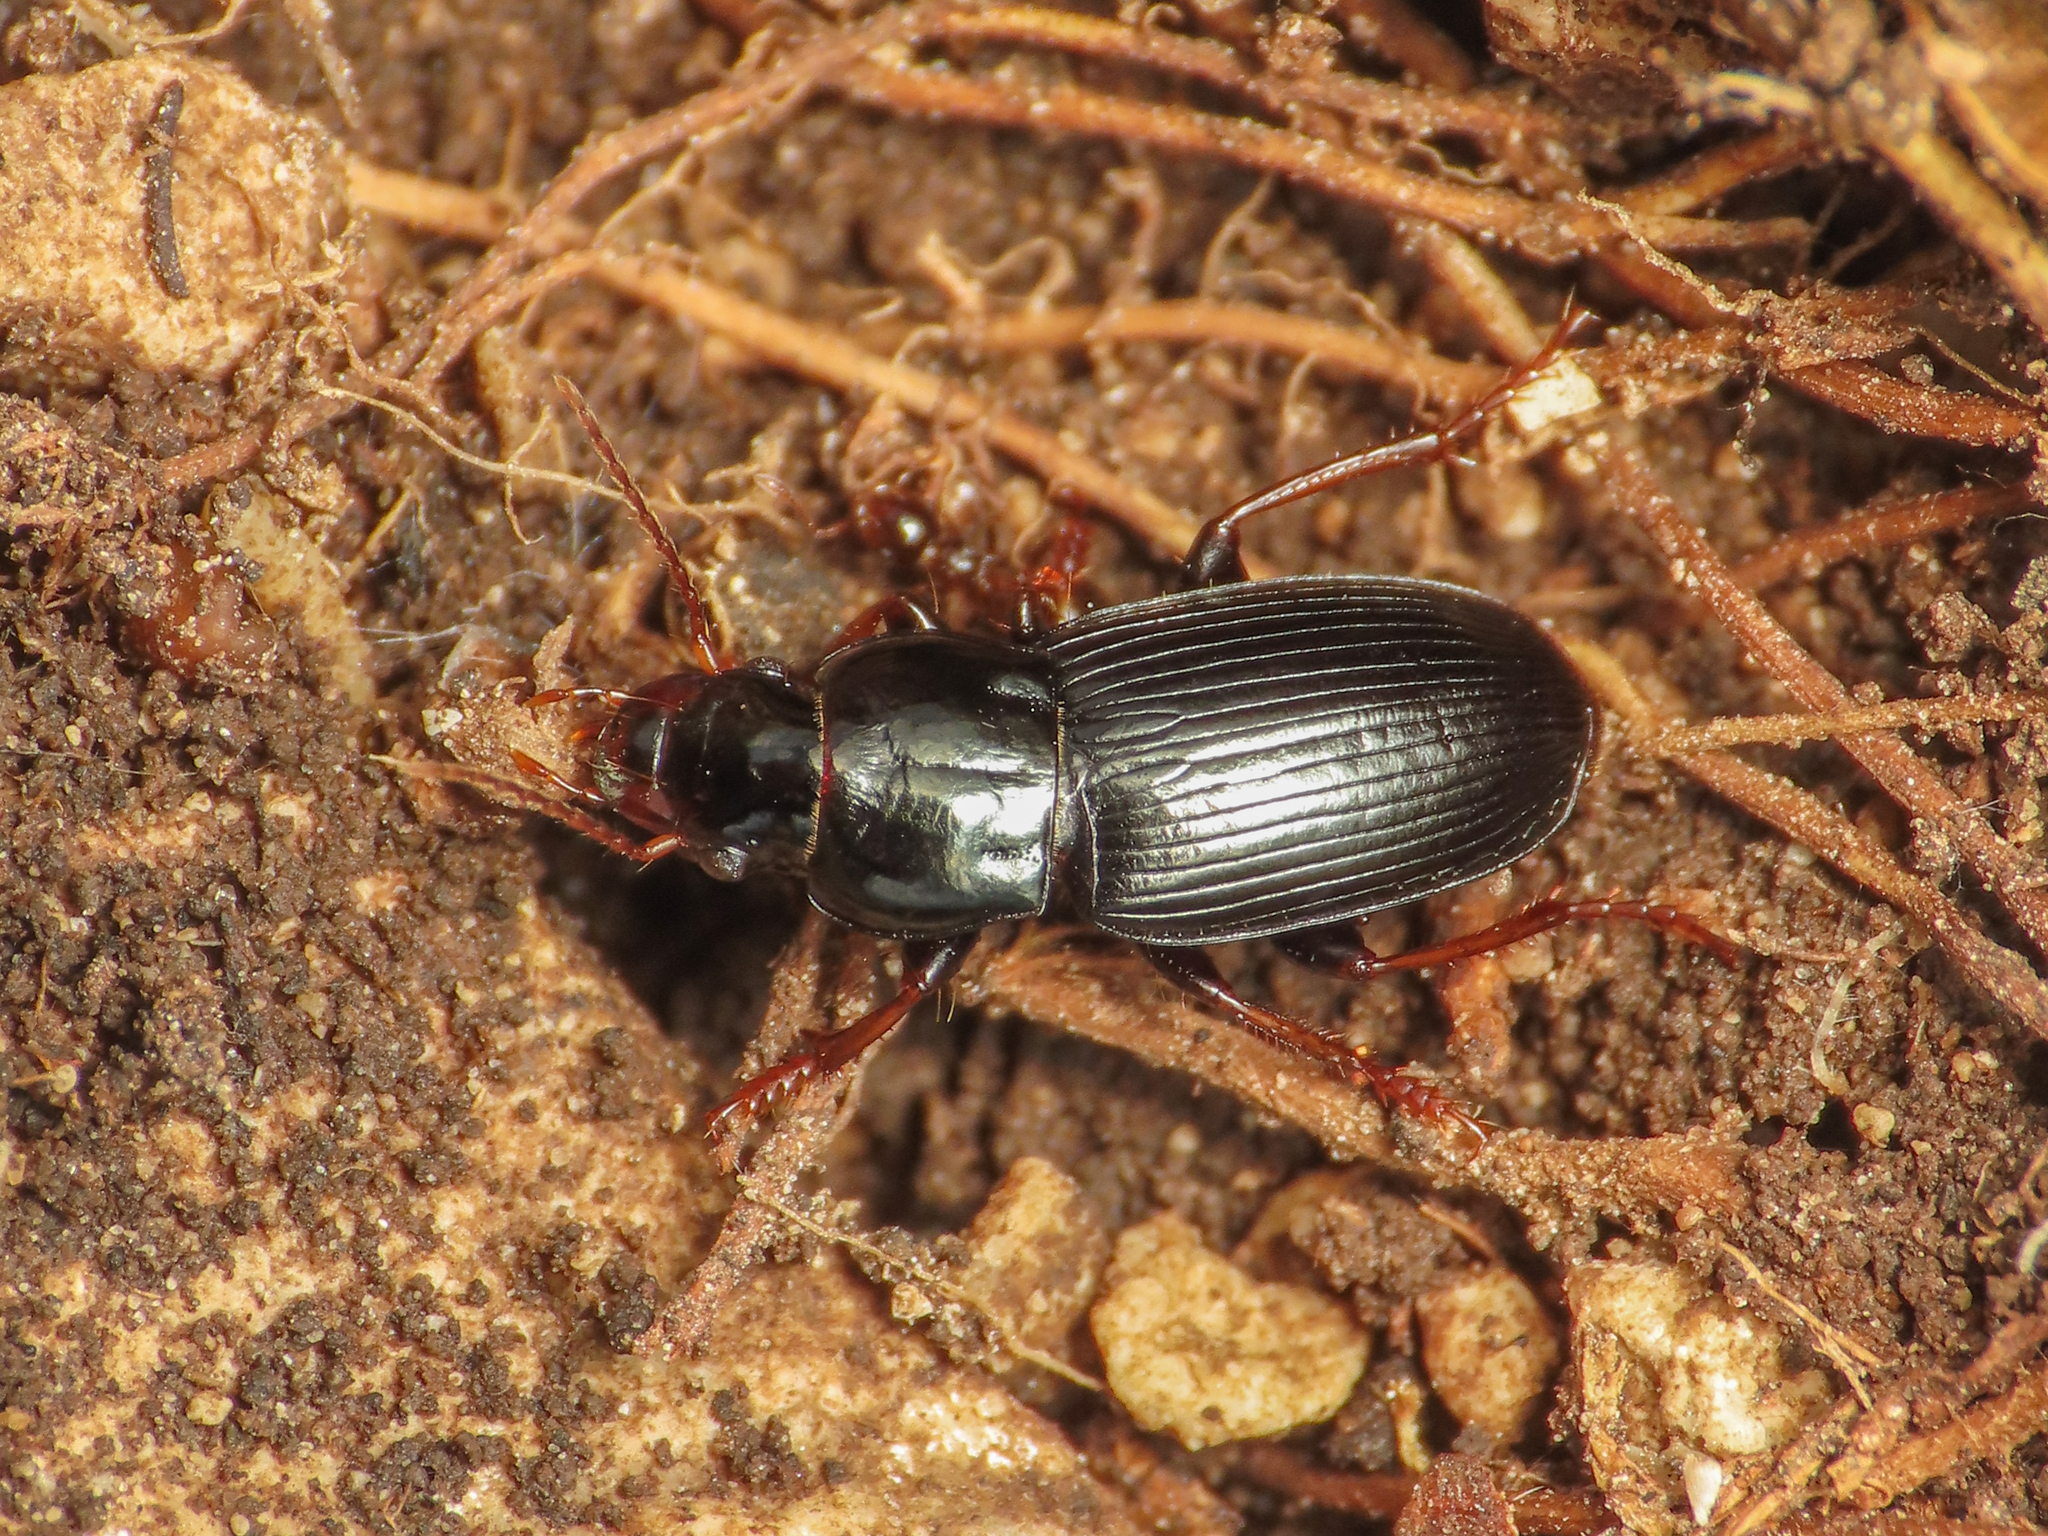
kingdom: Animalia
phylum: Arthropoda
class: Insecta
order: Coleoptera
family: Carabidae
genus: Harpalus
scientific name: Harpalus sulphuripes
